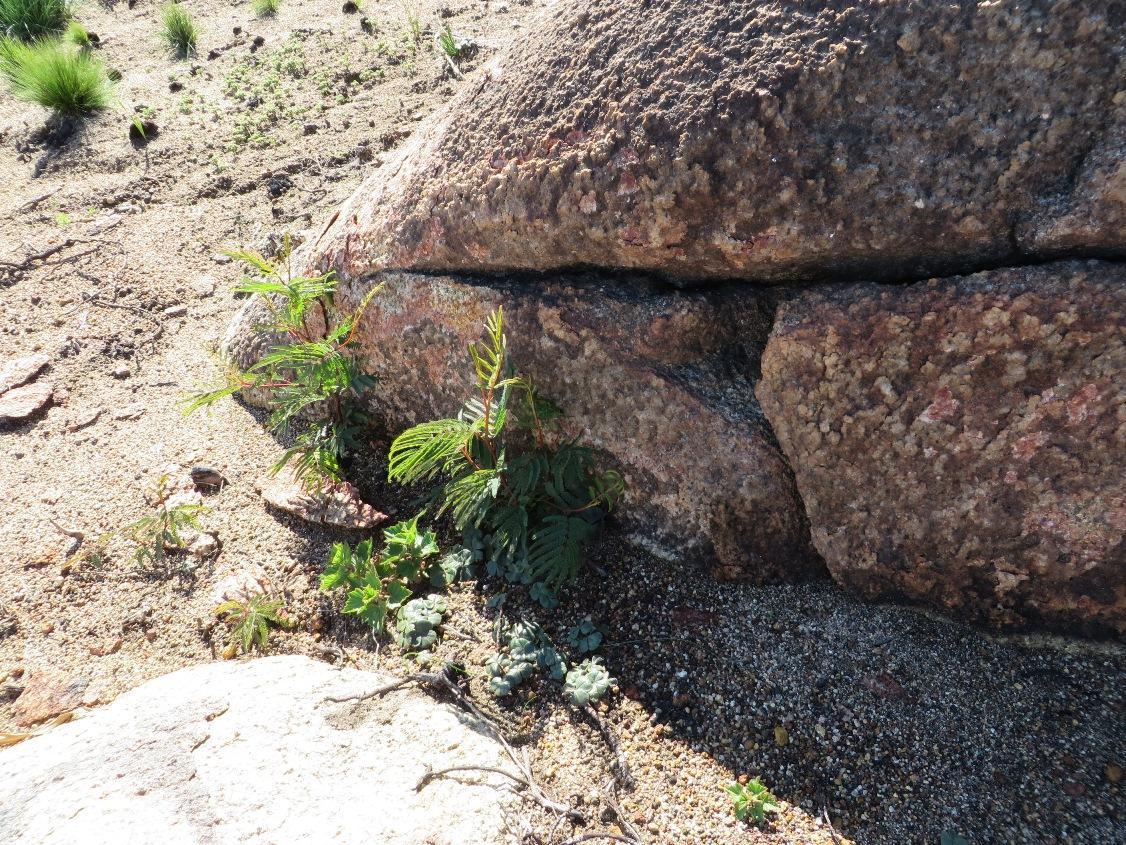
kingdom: Plantae
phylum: Tracheophyta
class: Magnoliopsida
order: Fabales
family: Fabaceae
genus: Paraserianthes
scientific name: Paraserianthes lophantha
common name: Plume albizia
